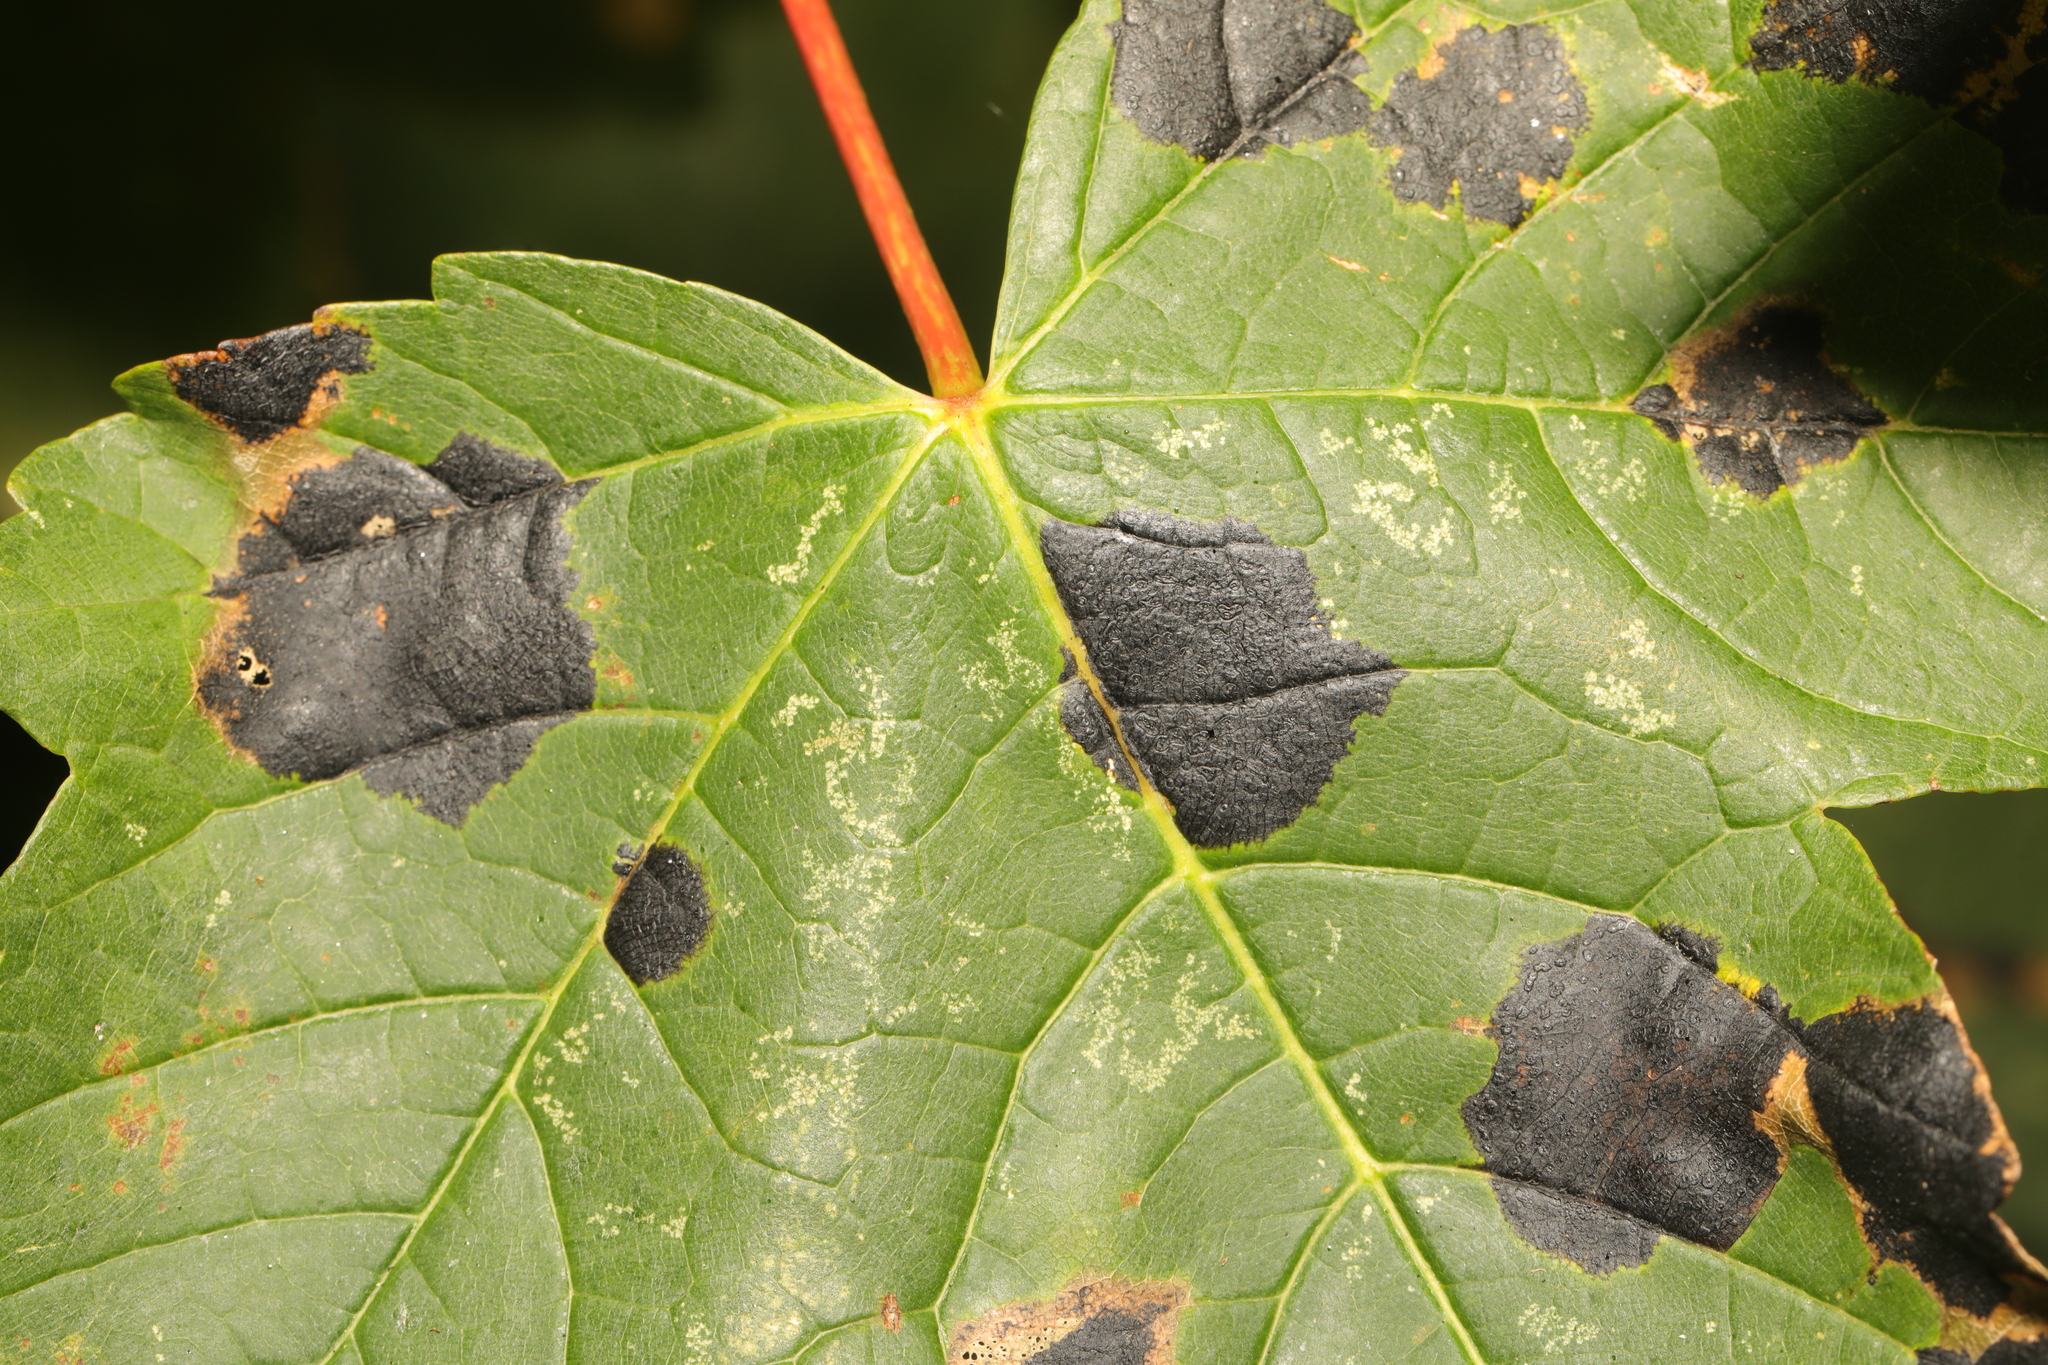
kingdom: Fungi
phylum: Ascomycota
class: Leotiomycetes
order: Rhytismatales
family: Rhytismataceae
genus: Rhytisma
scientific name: Rhytisma acerinum
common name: European tar spot
